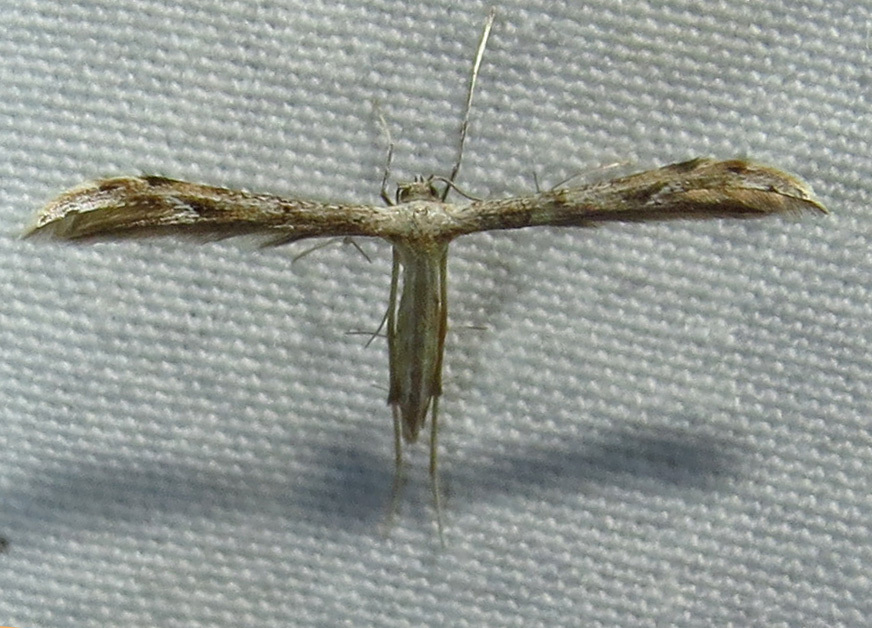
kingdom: Animalia
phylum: Arthropoda
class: Insecta
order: Lepidoptera
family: Pterophoridae
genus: Pselnophorus
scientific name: Pselnophorus belfragei
